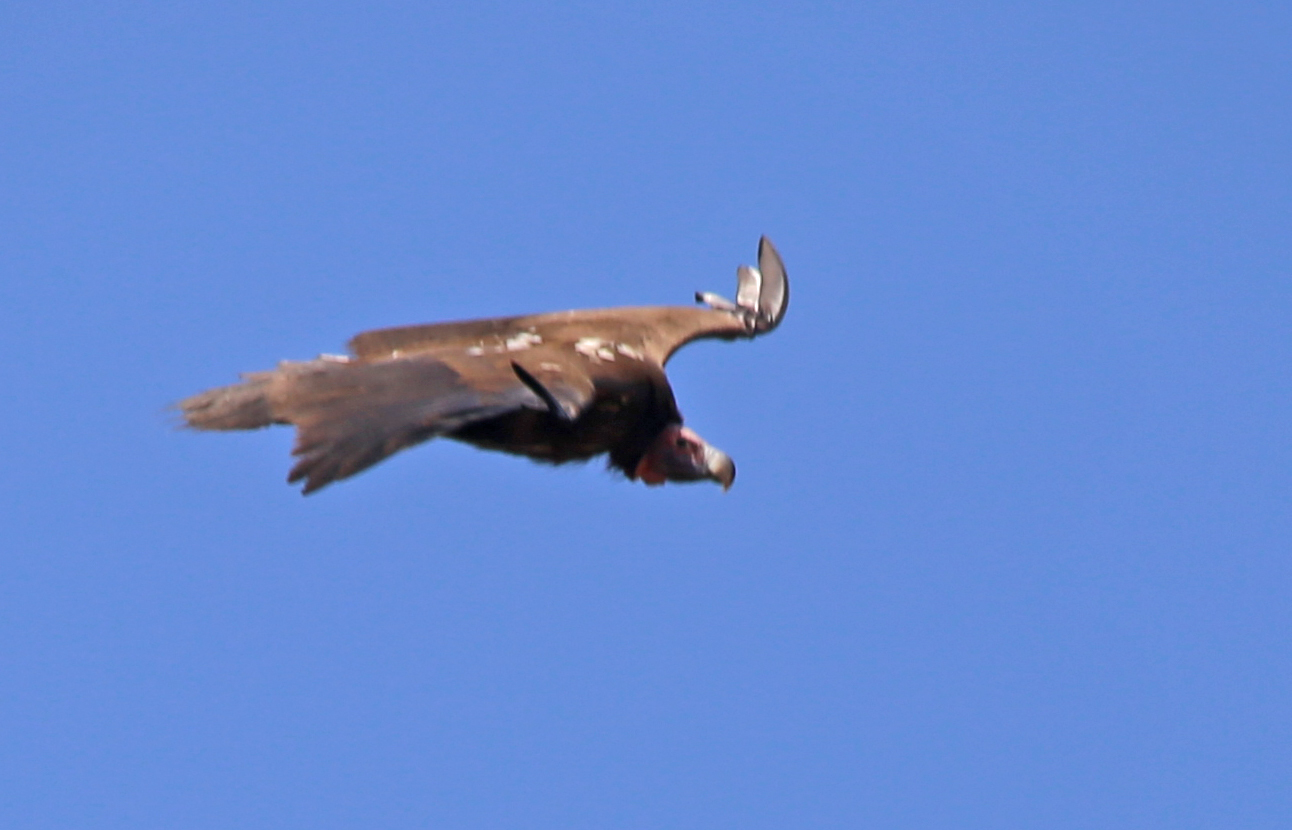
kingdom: Animalia
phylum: Chordata
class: Aves
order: Accipitriformes
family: Accipitridae
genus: Torgos
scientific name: Torgos tracheliotos
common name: Lappet-faced vulture
